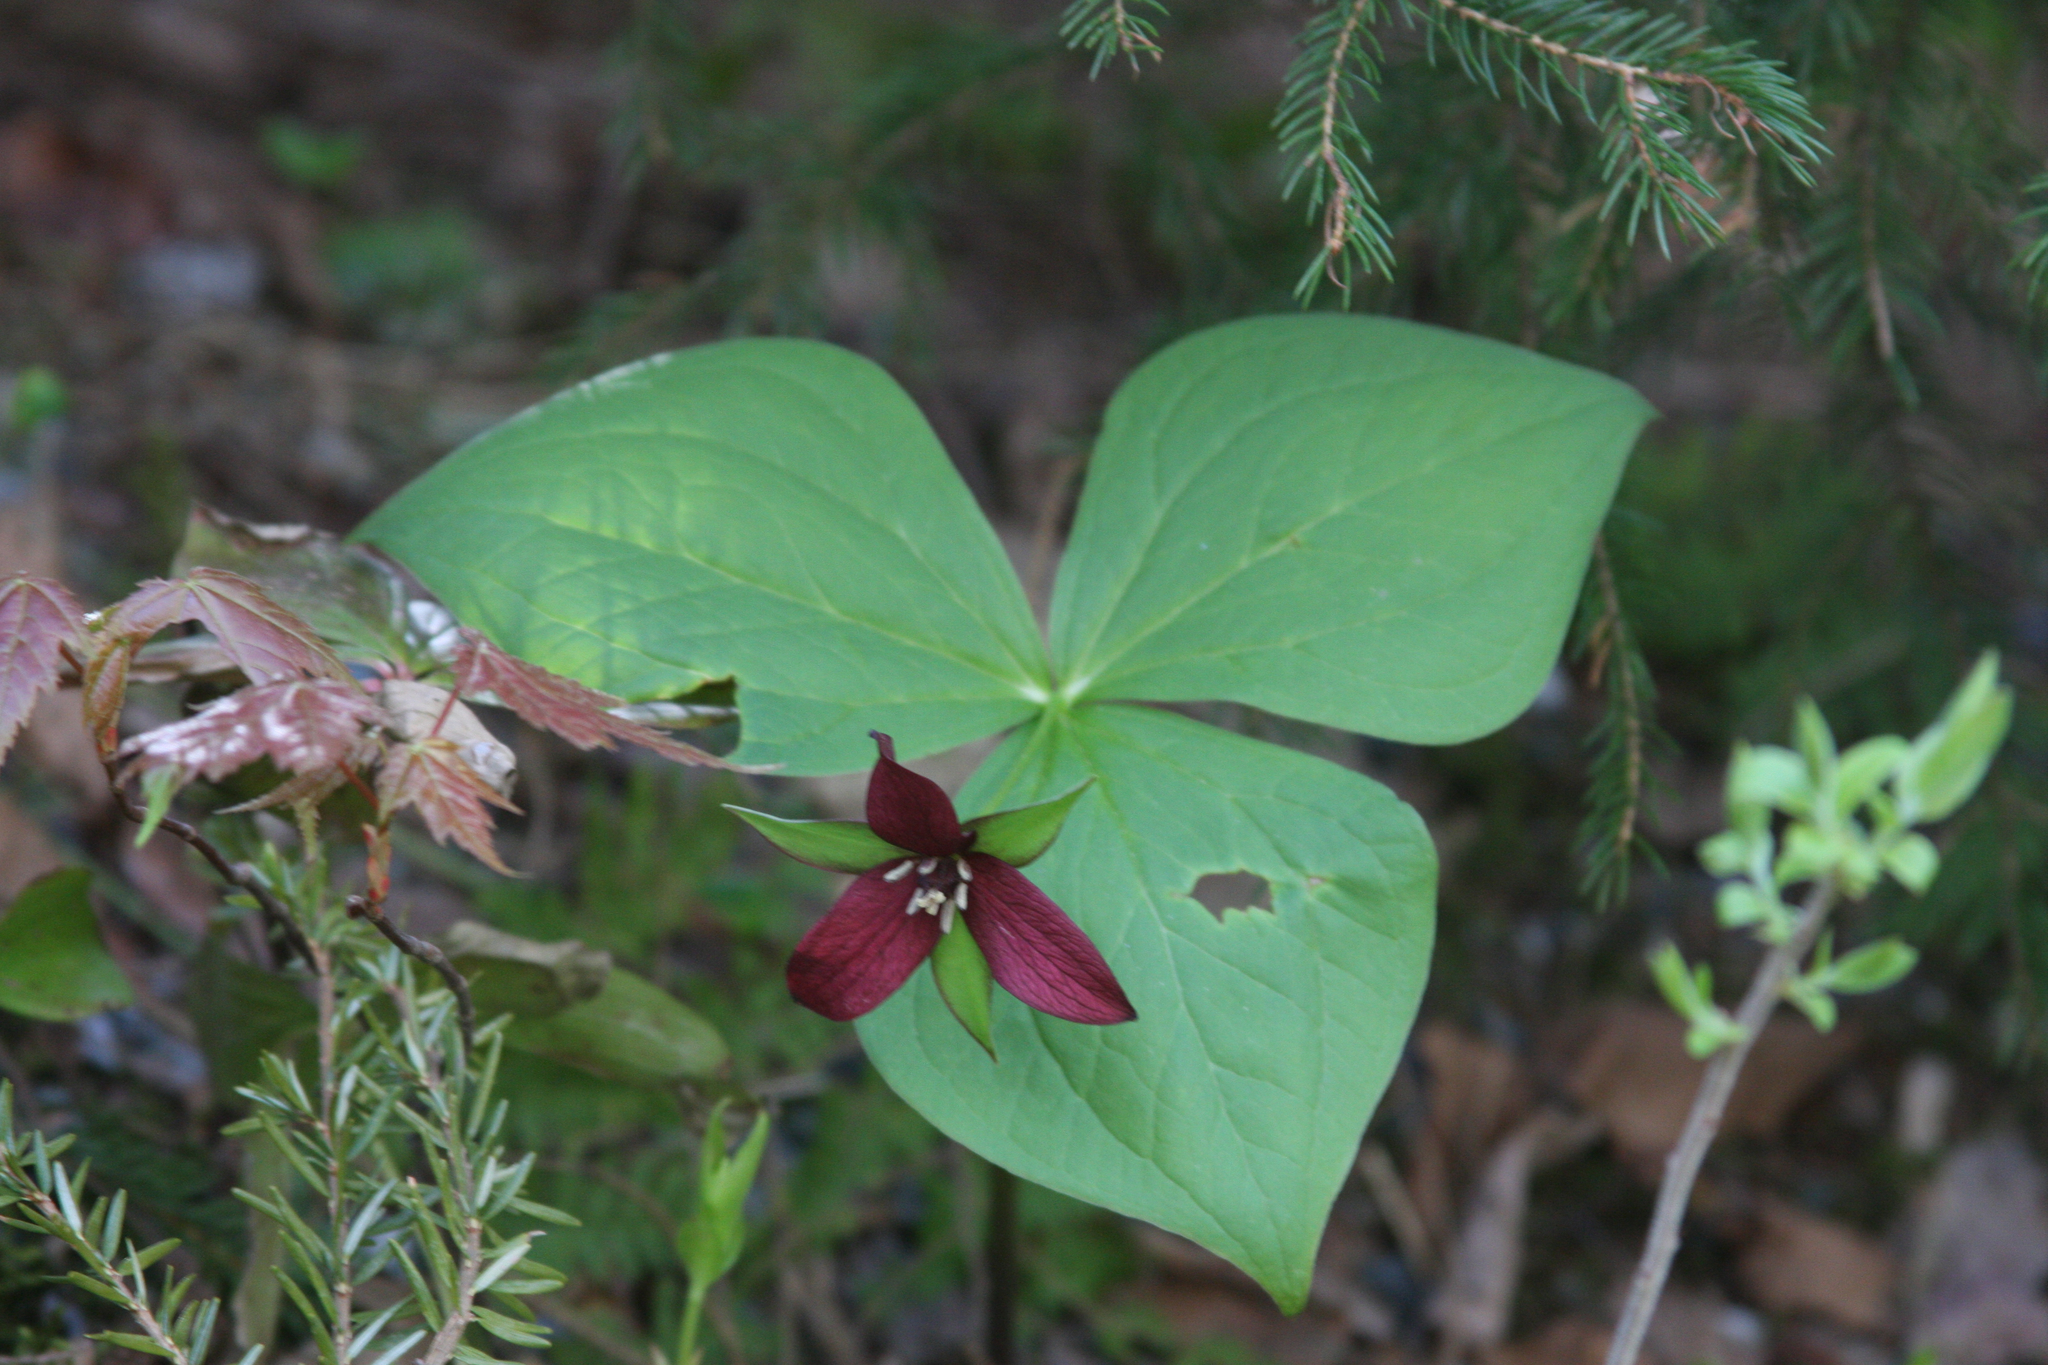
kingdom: Plantae
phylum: Tracheophyta
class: Liliopsida
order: Liliales
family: Melanthiaceae
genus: Trillium
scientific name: Trillium erectum
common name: Purple trillium
